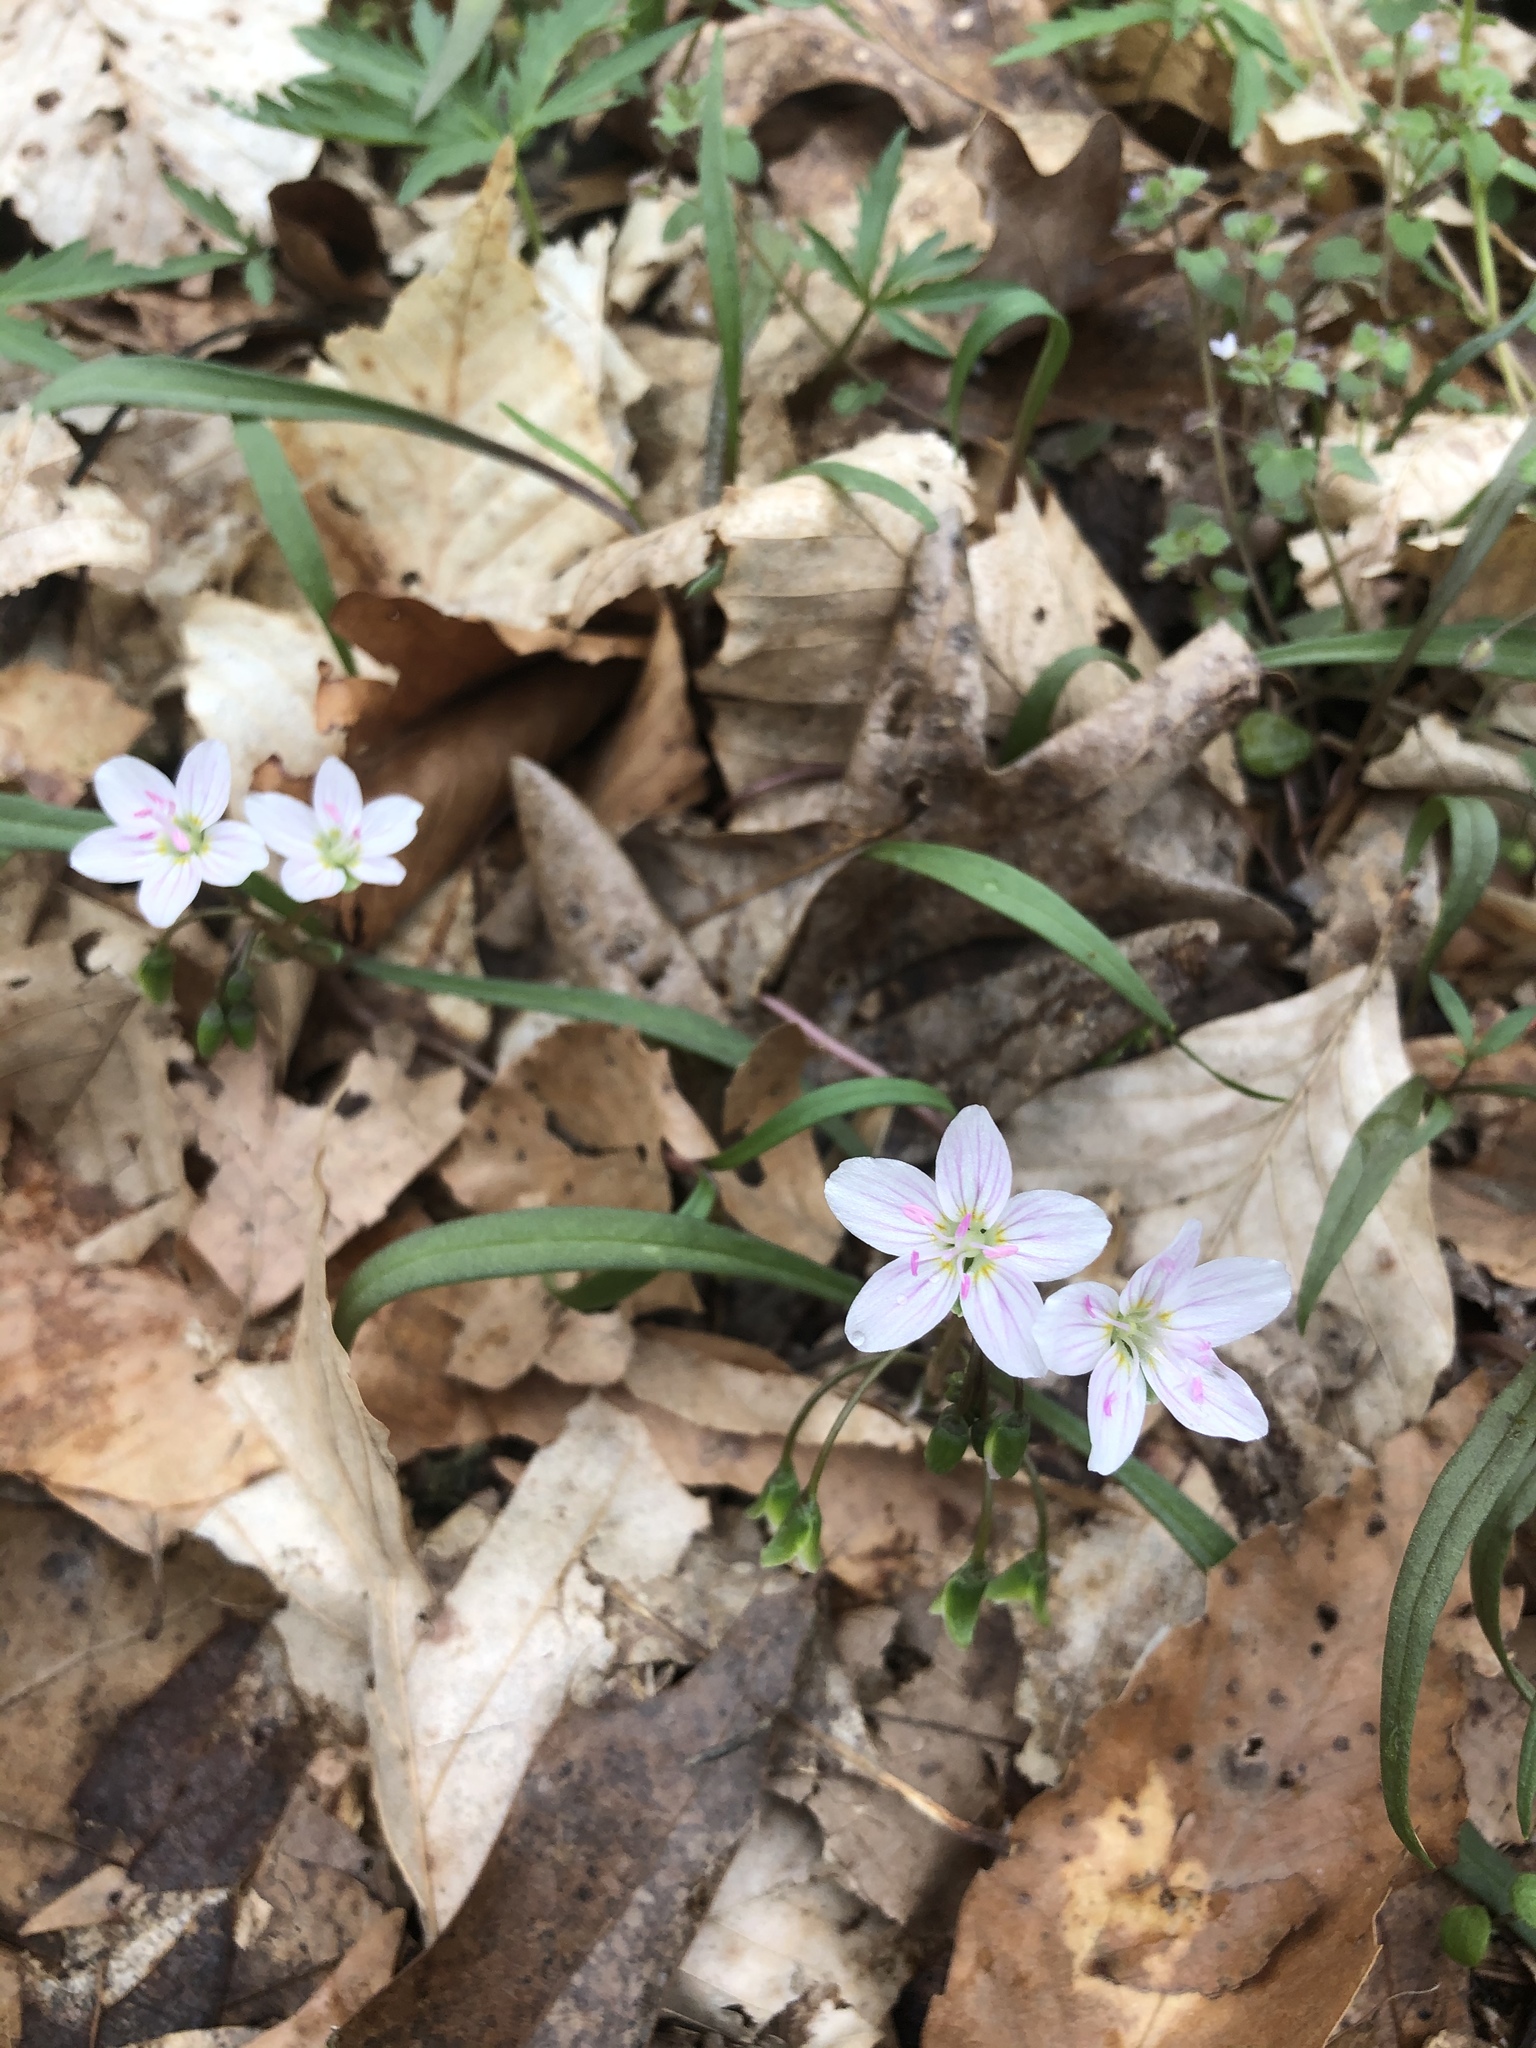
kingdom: Plantae
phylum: Tracheophyta
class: Magnoliopsida
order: Caryophyllales
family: Montiaceae
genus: Claytonia
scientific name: Claytonia virginica
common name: Virginia springbeauty
